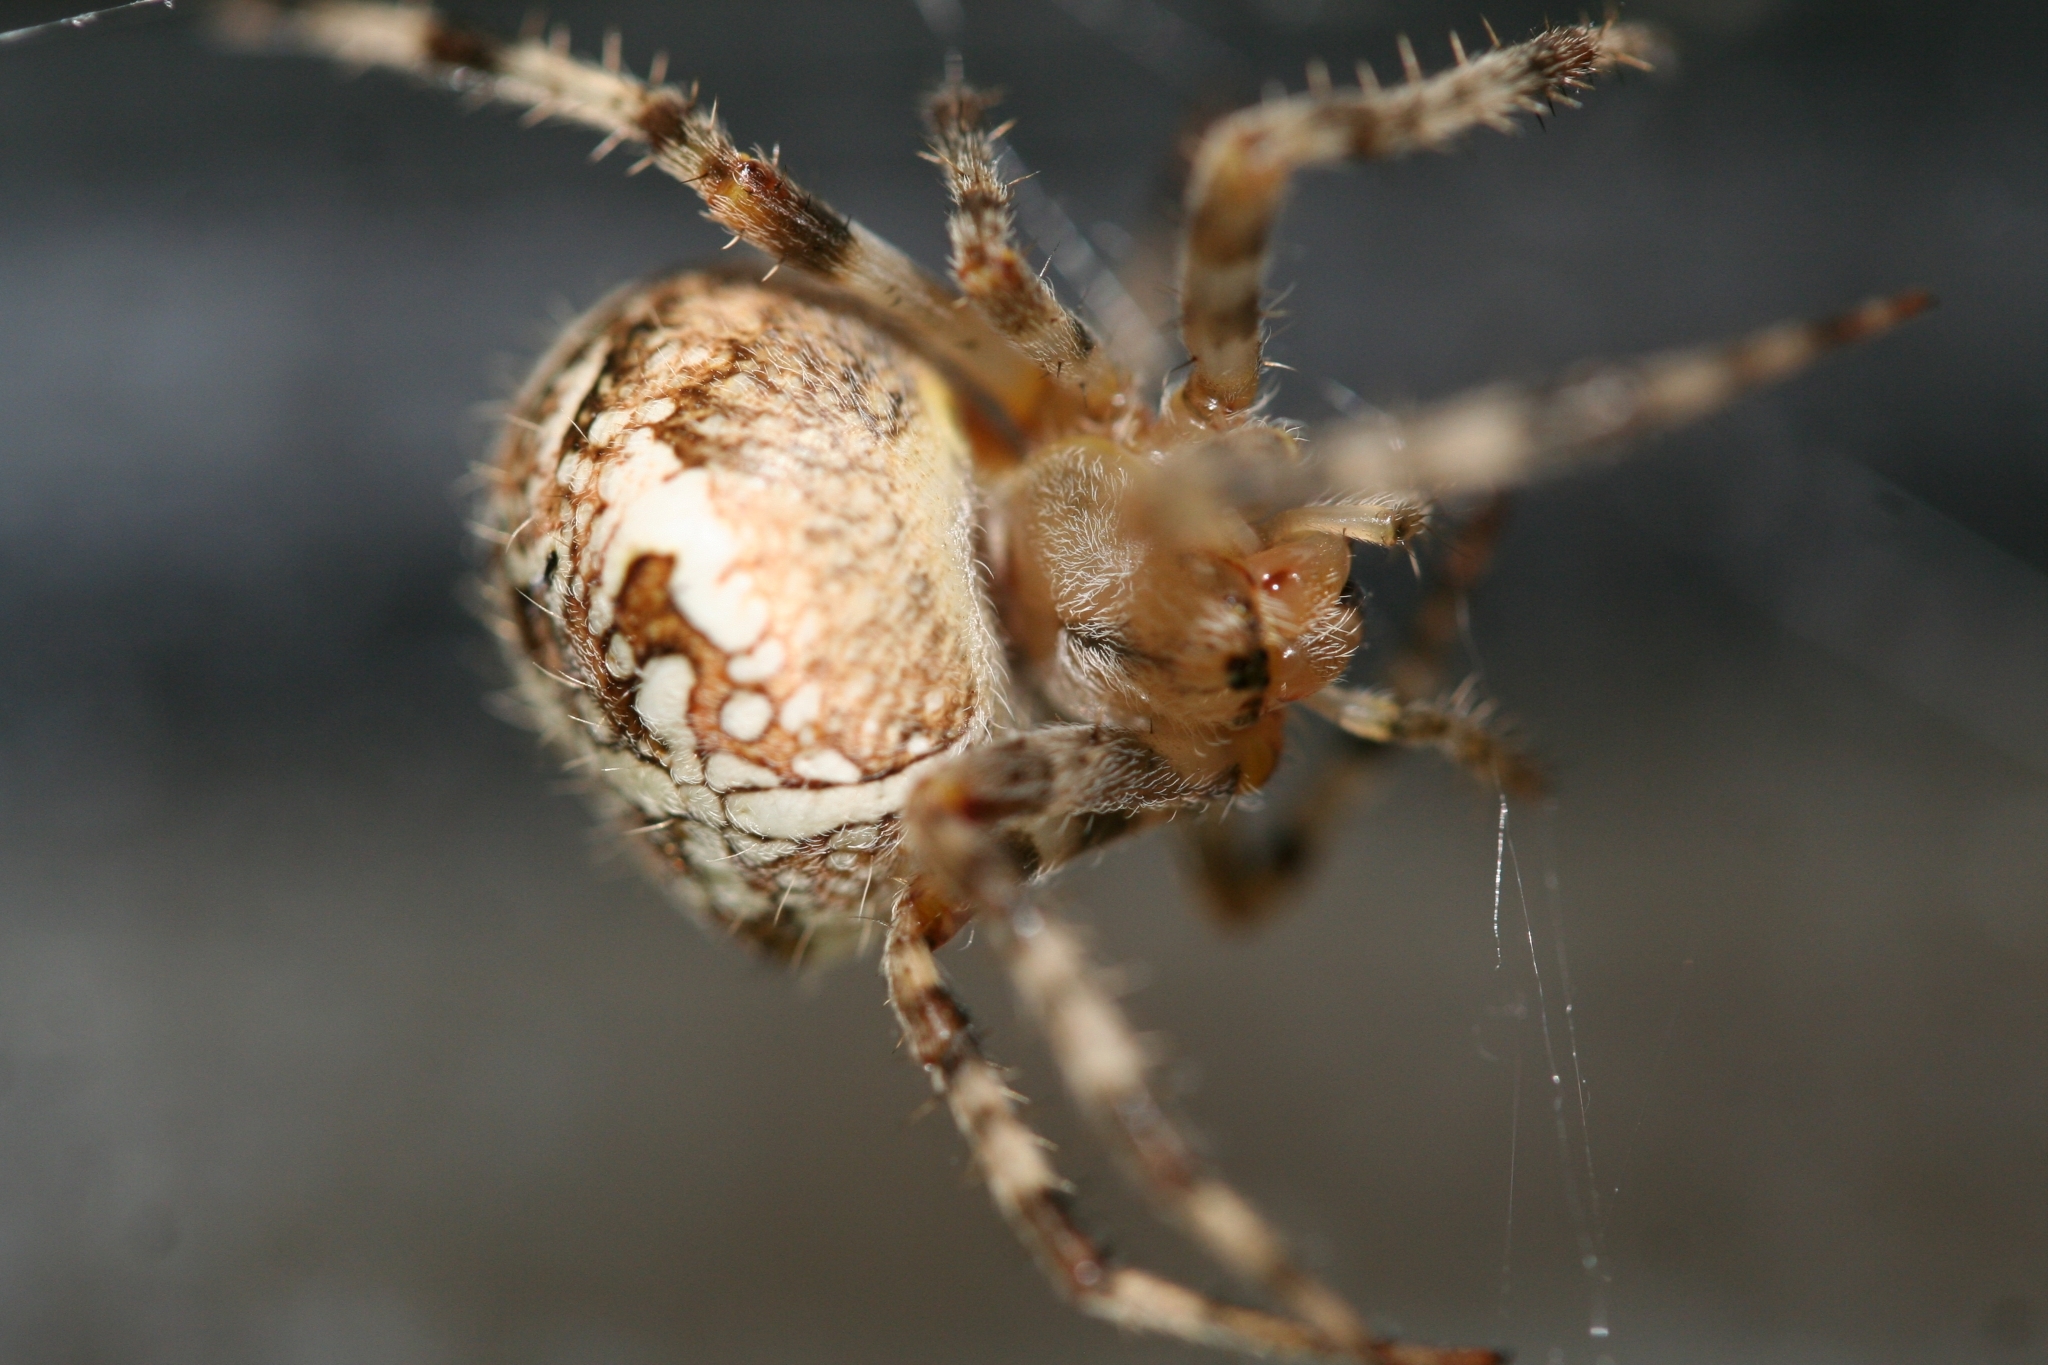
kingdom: Animalia
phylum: Arthropoda
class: Arachnida
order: Araneae
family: Araneidae
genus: Araneus
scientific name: Araneus diadematus
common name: Cross orbweaver
